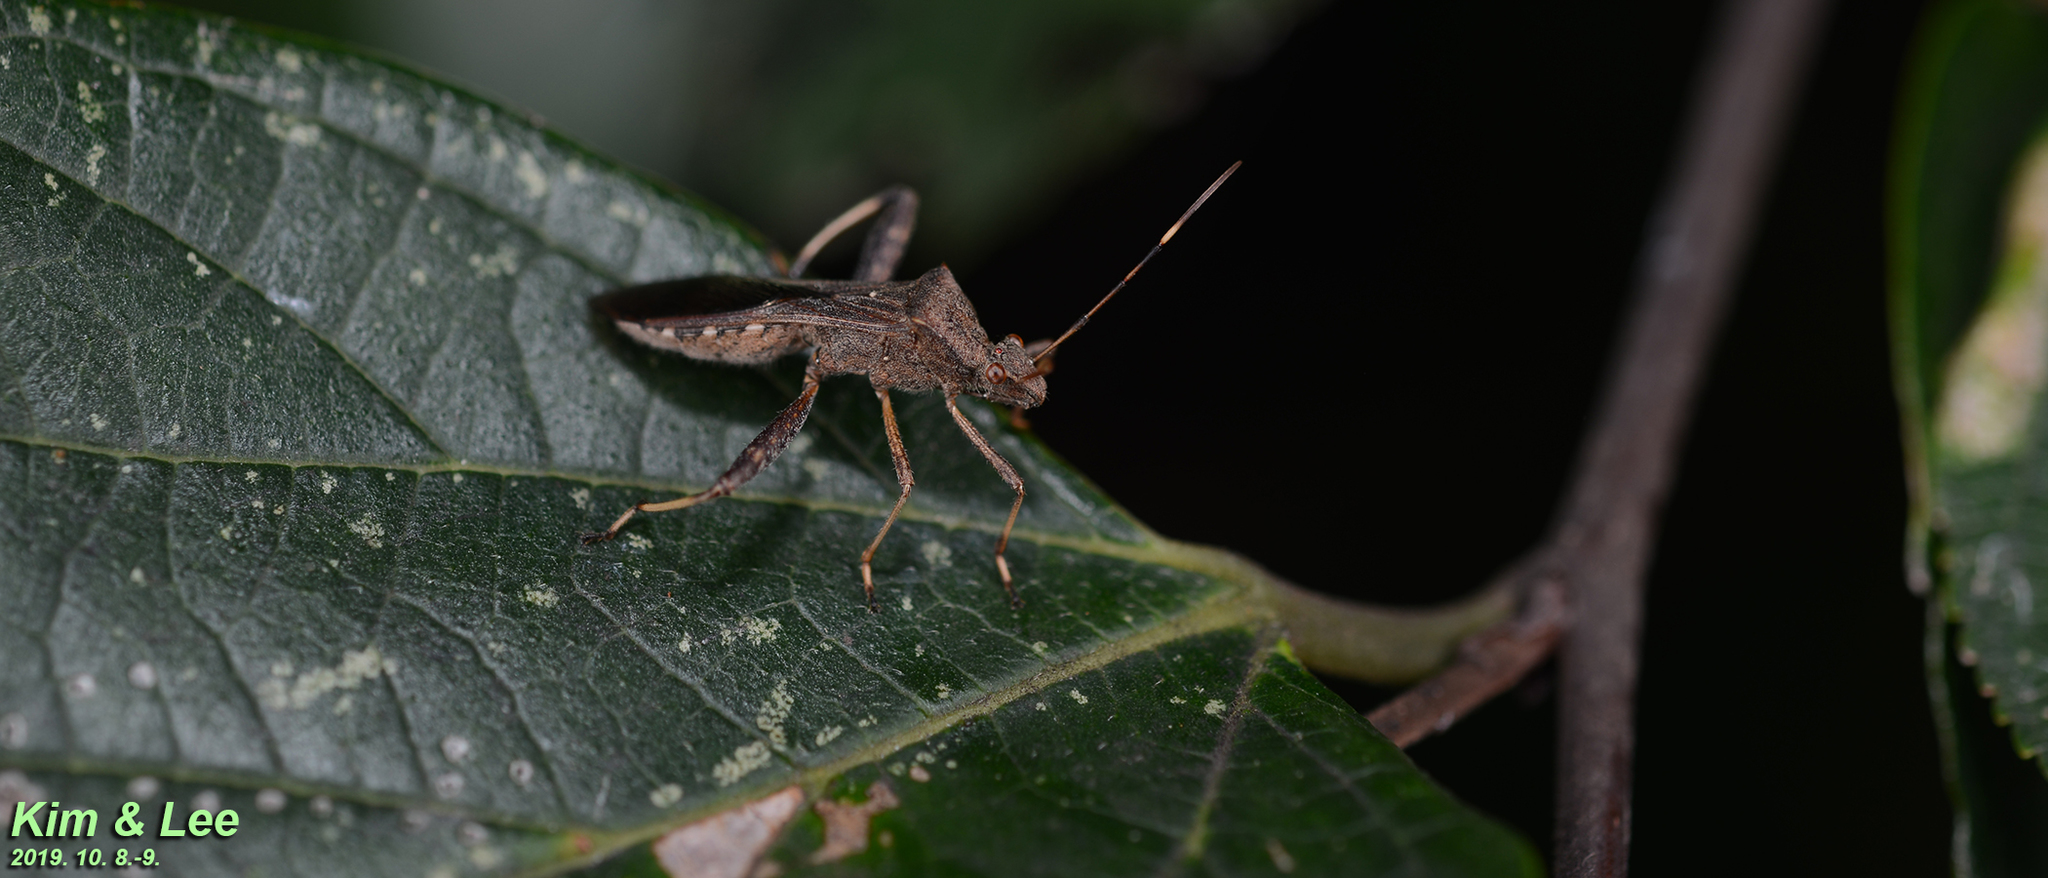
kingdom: Animalia
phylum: Arthropoda
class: Insecta
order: Hemiptera
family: Alydidae
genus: Riptortus
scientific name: Riptortus pedestris
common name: Bean bug
